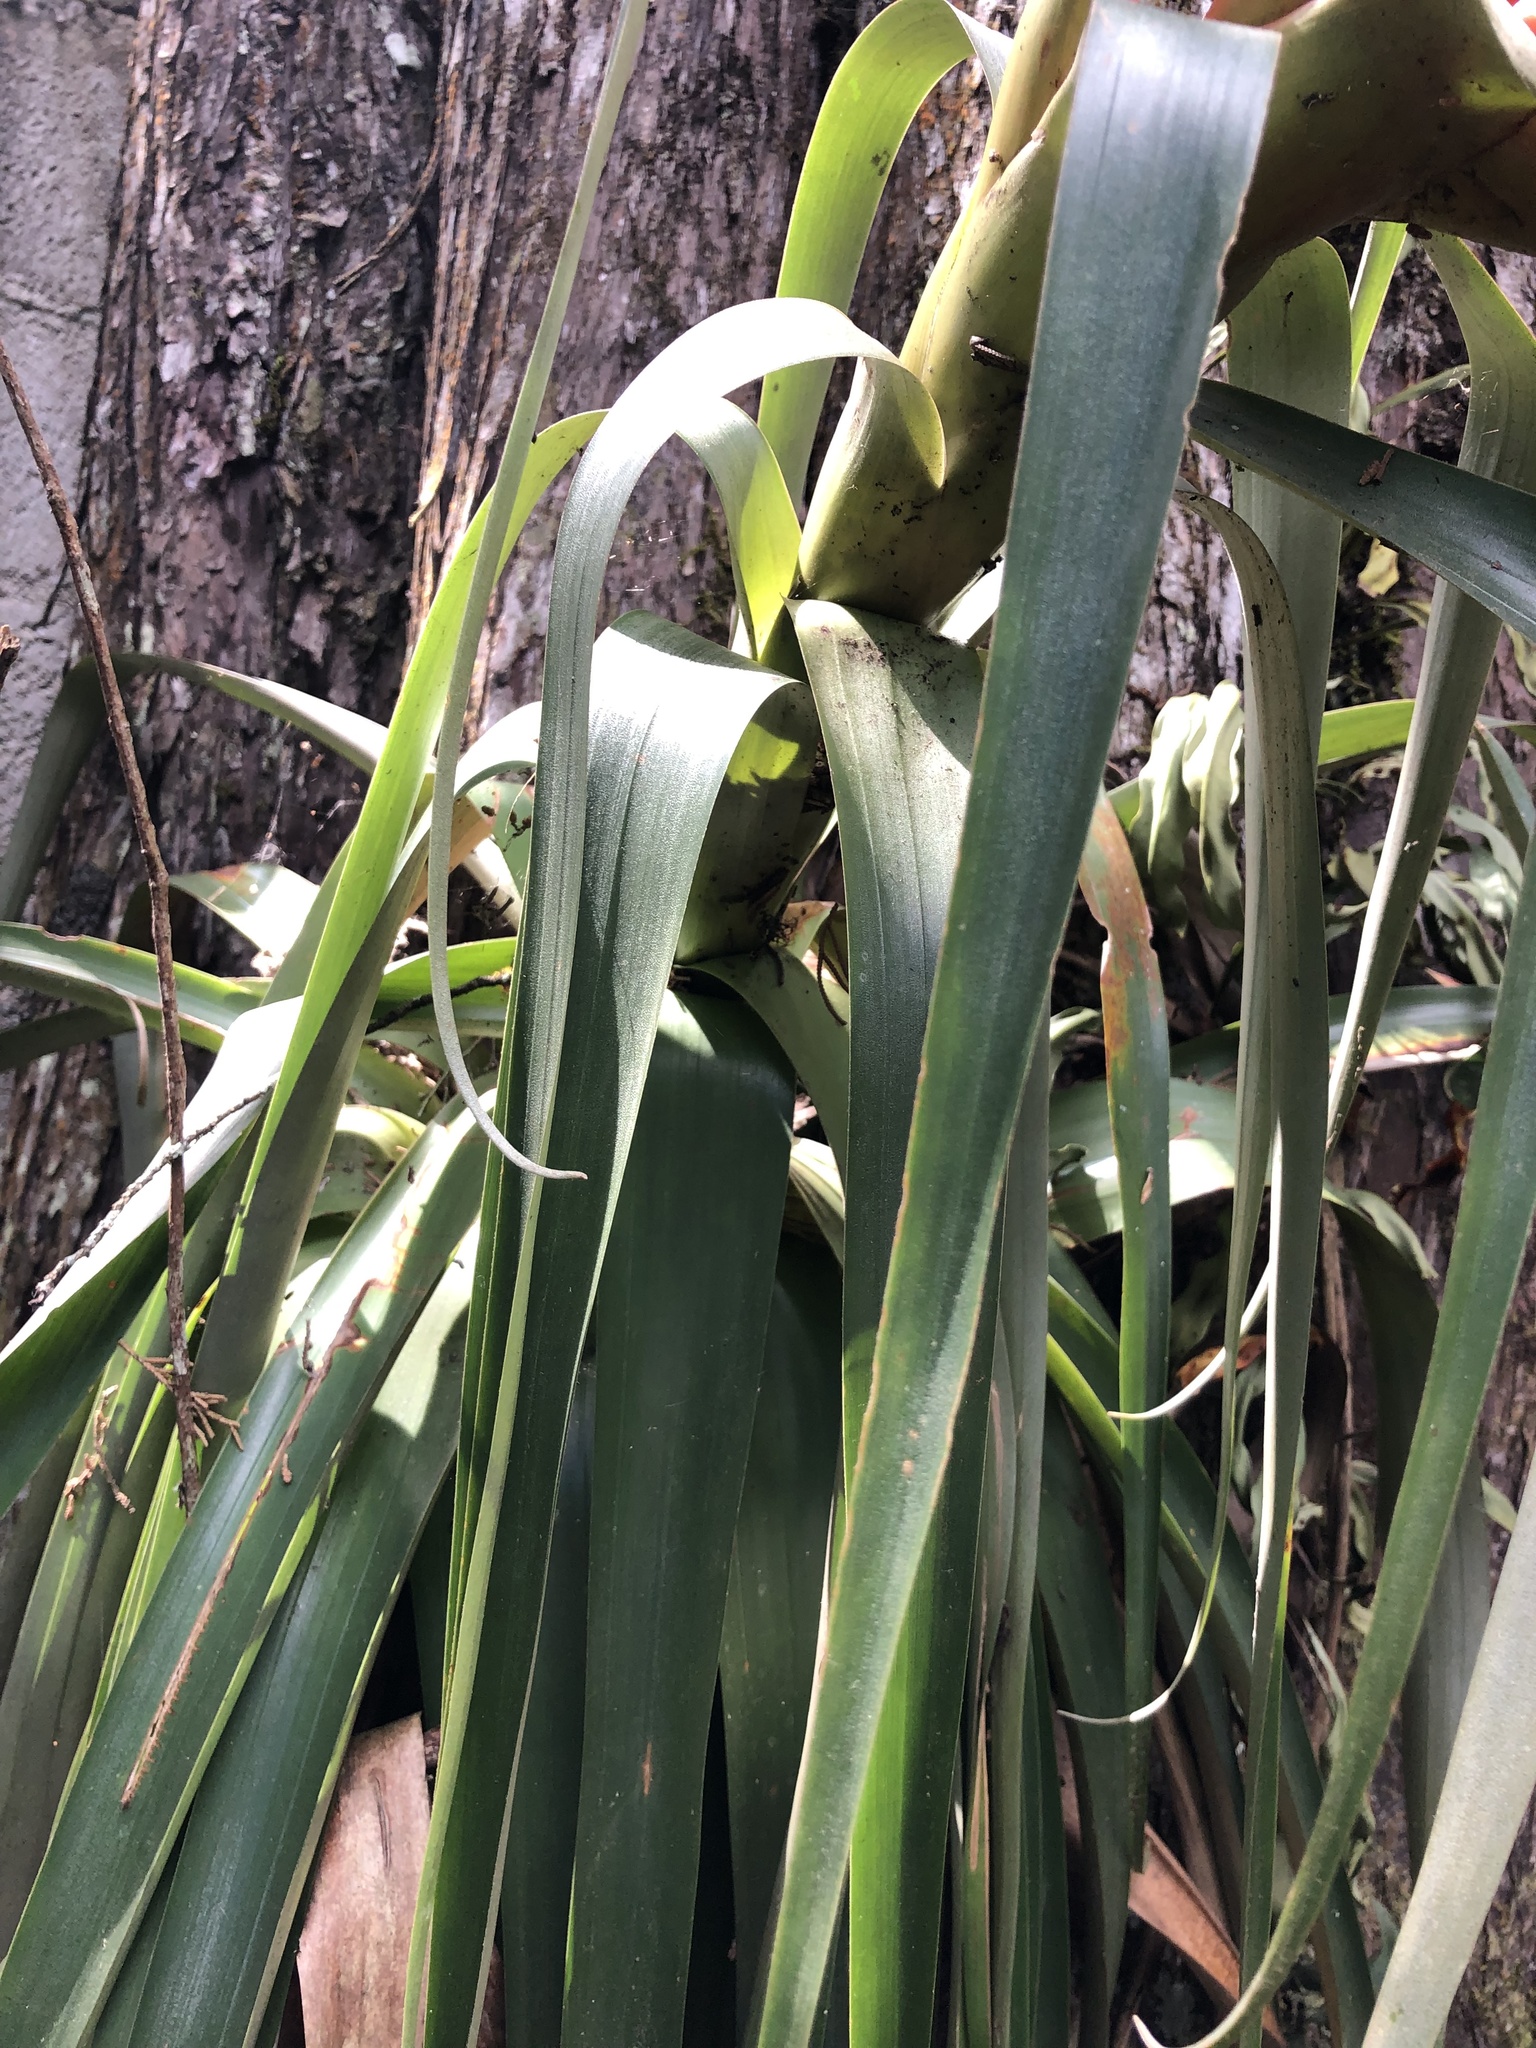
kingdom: Plantae
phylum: Tracheophyta
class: Liliopsida
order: Poales
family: Bromeliaceae
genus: Tillandsia
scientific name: Tillandsia ponderosa
